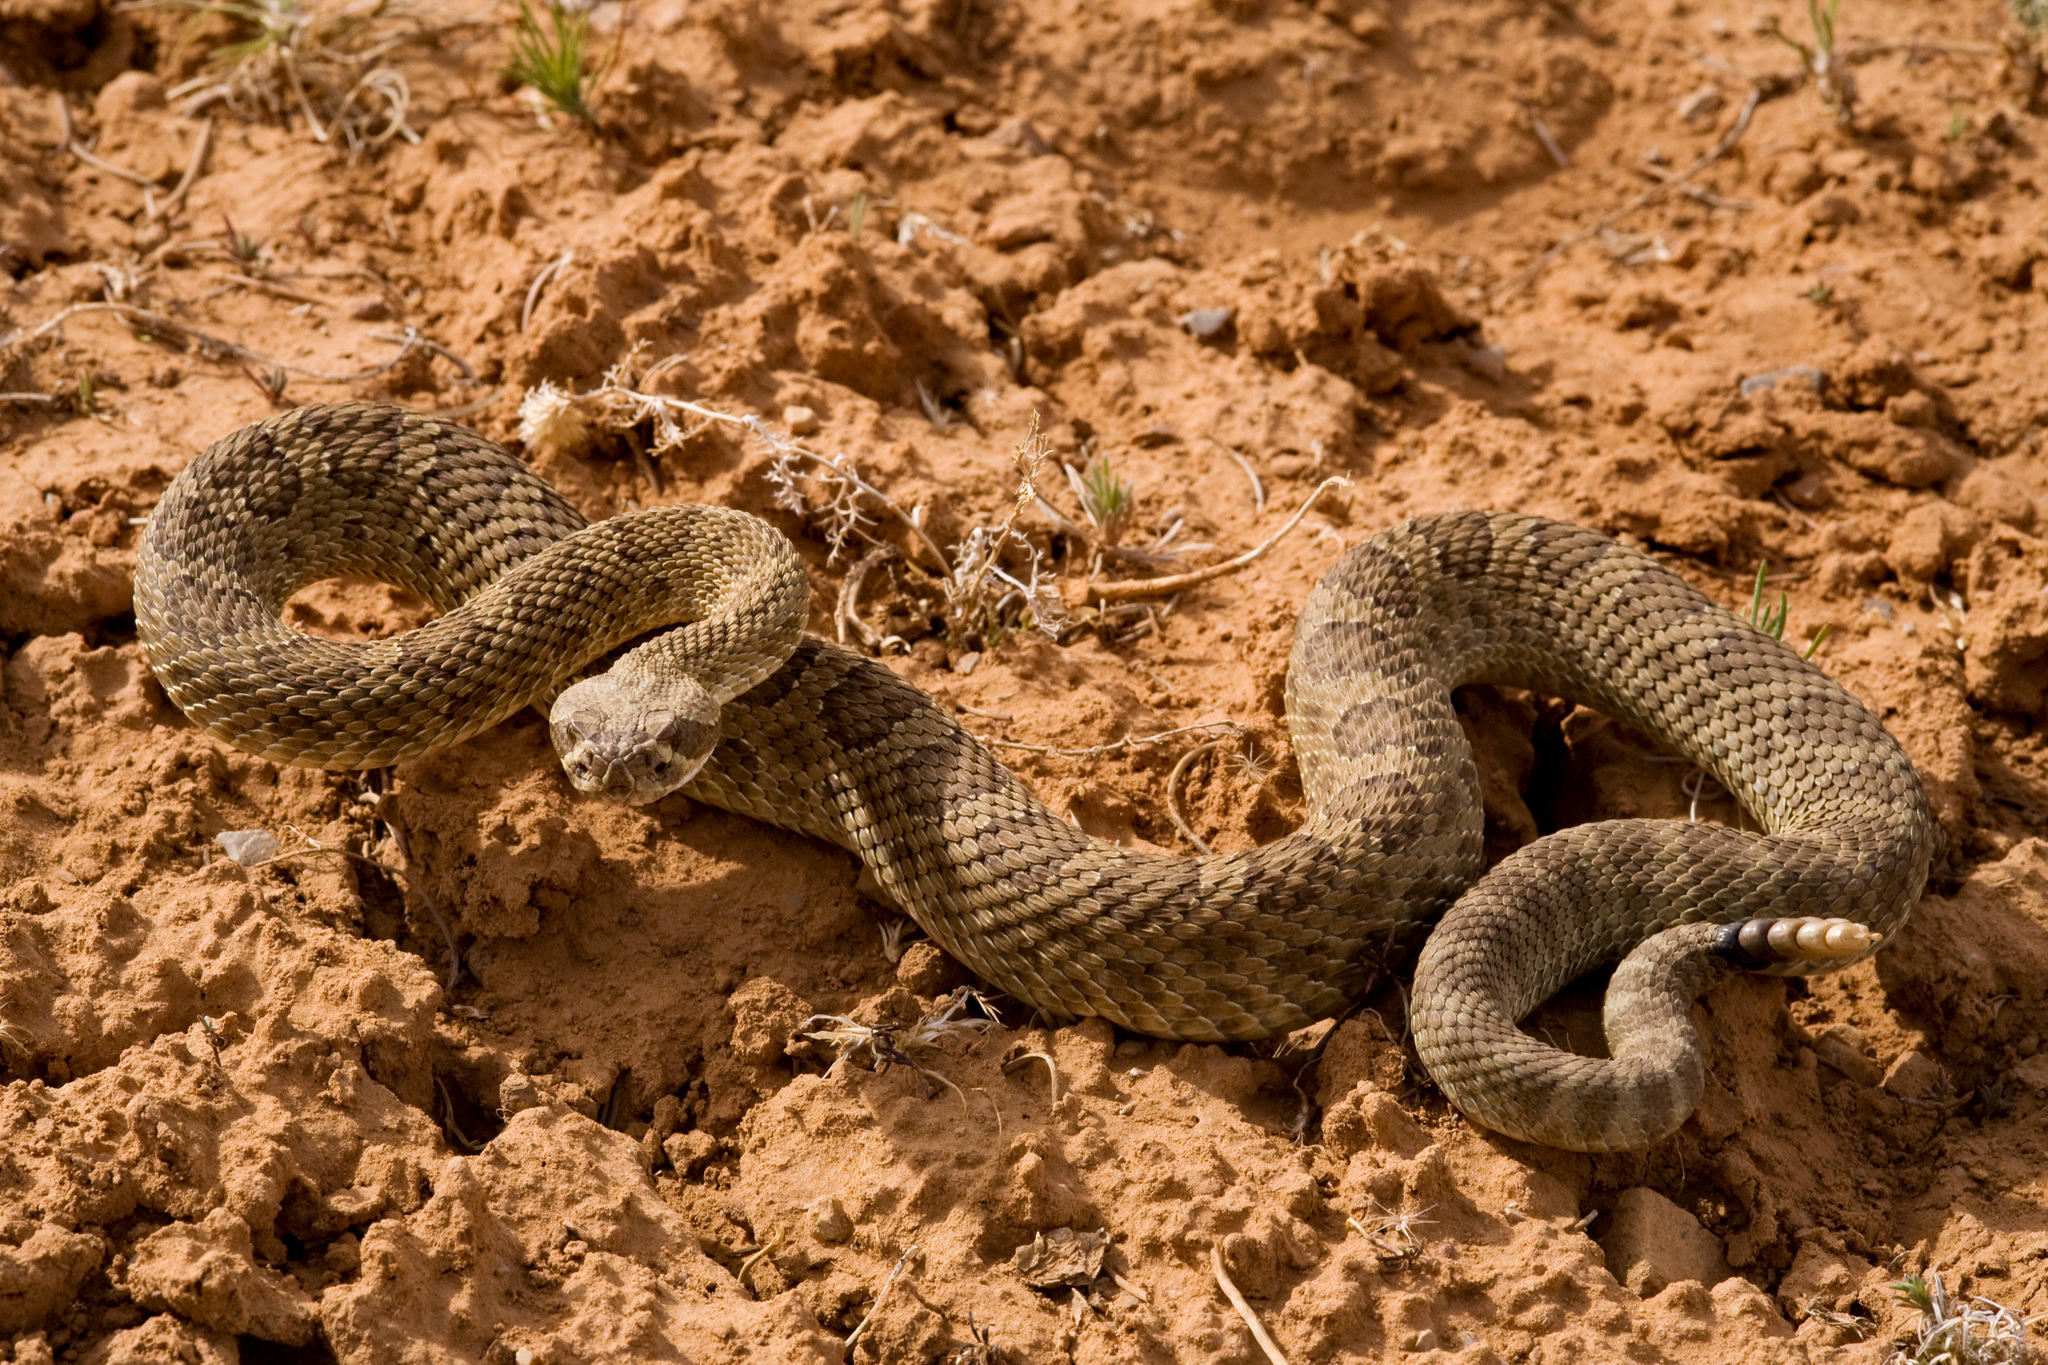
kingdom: Animalia
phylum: Chordata
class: Squamata
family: Viperidae
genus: Crotalus
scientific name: Crotalus viridis
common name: Prairie rattlesnake
